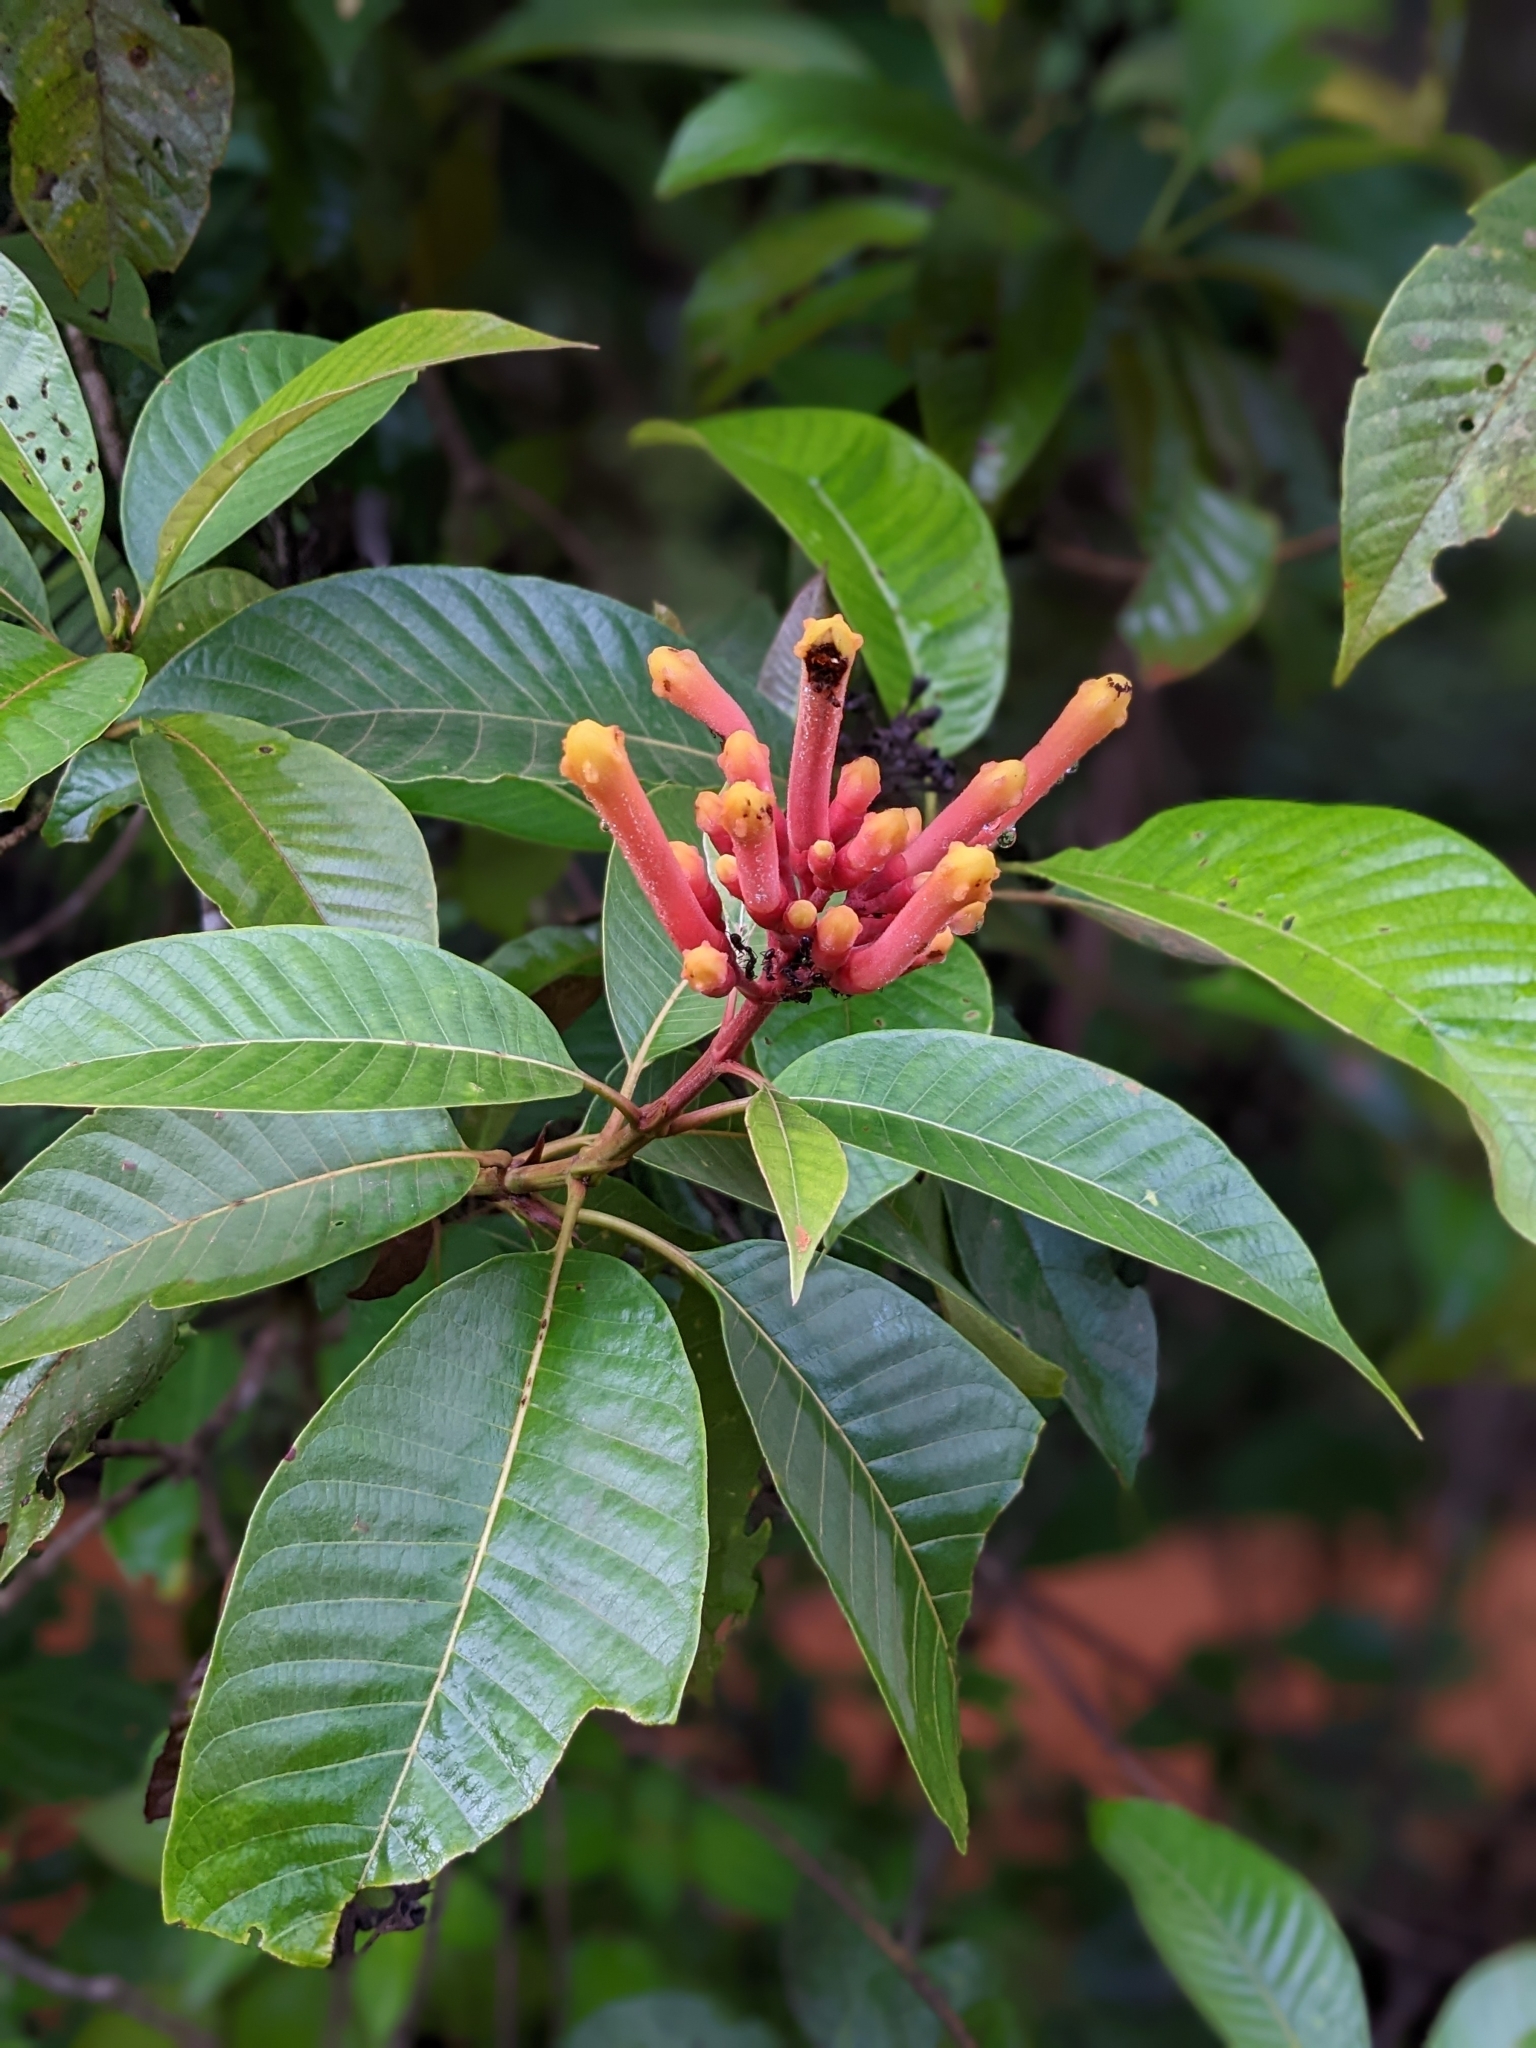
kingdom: Plantae
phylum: Tracheophyta
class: Magnoliopsida
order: Gentianales
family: Rubiaceae
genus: Isertia
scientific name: Isertia coccinea
